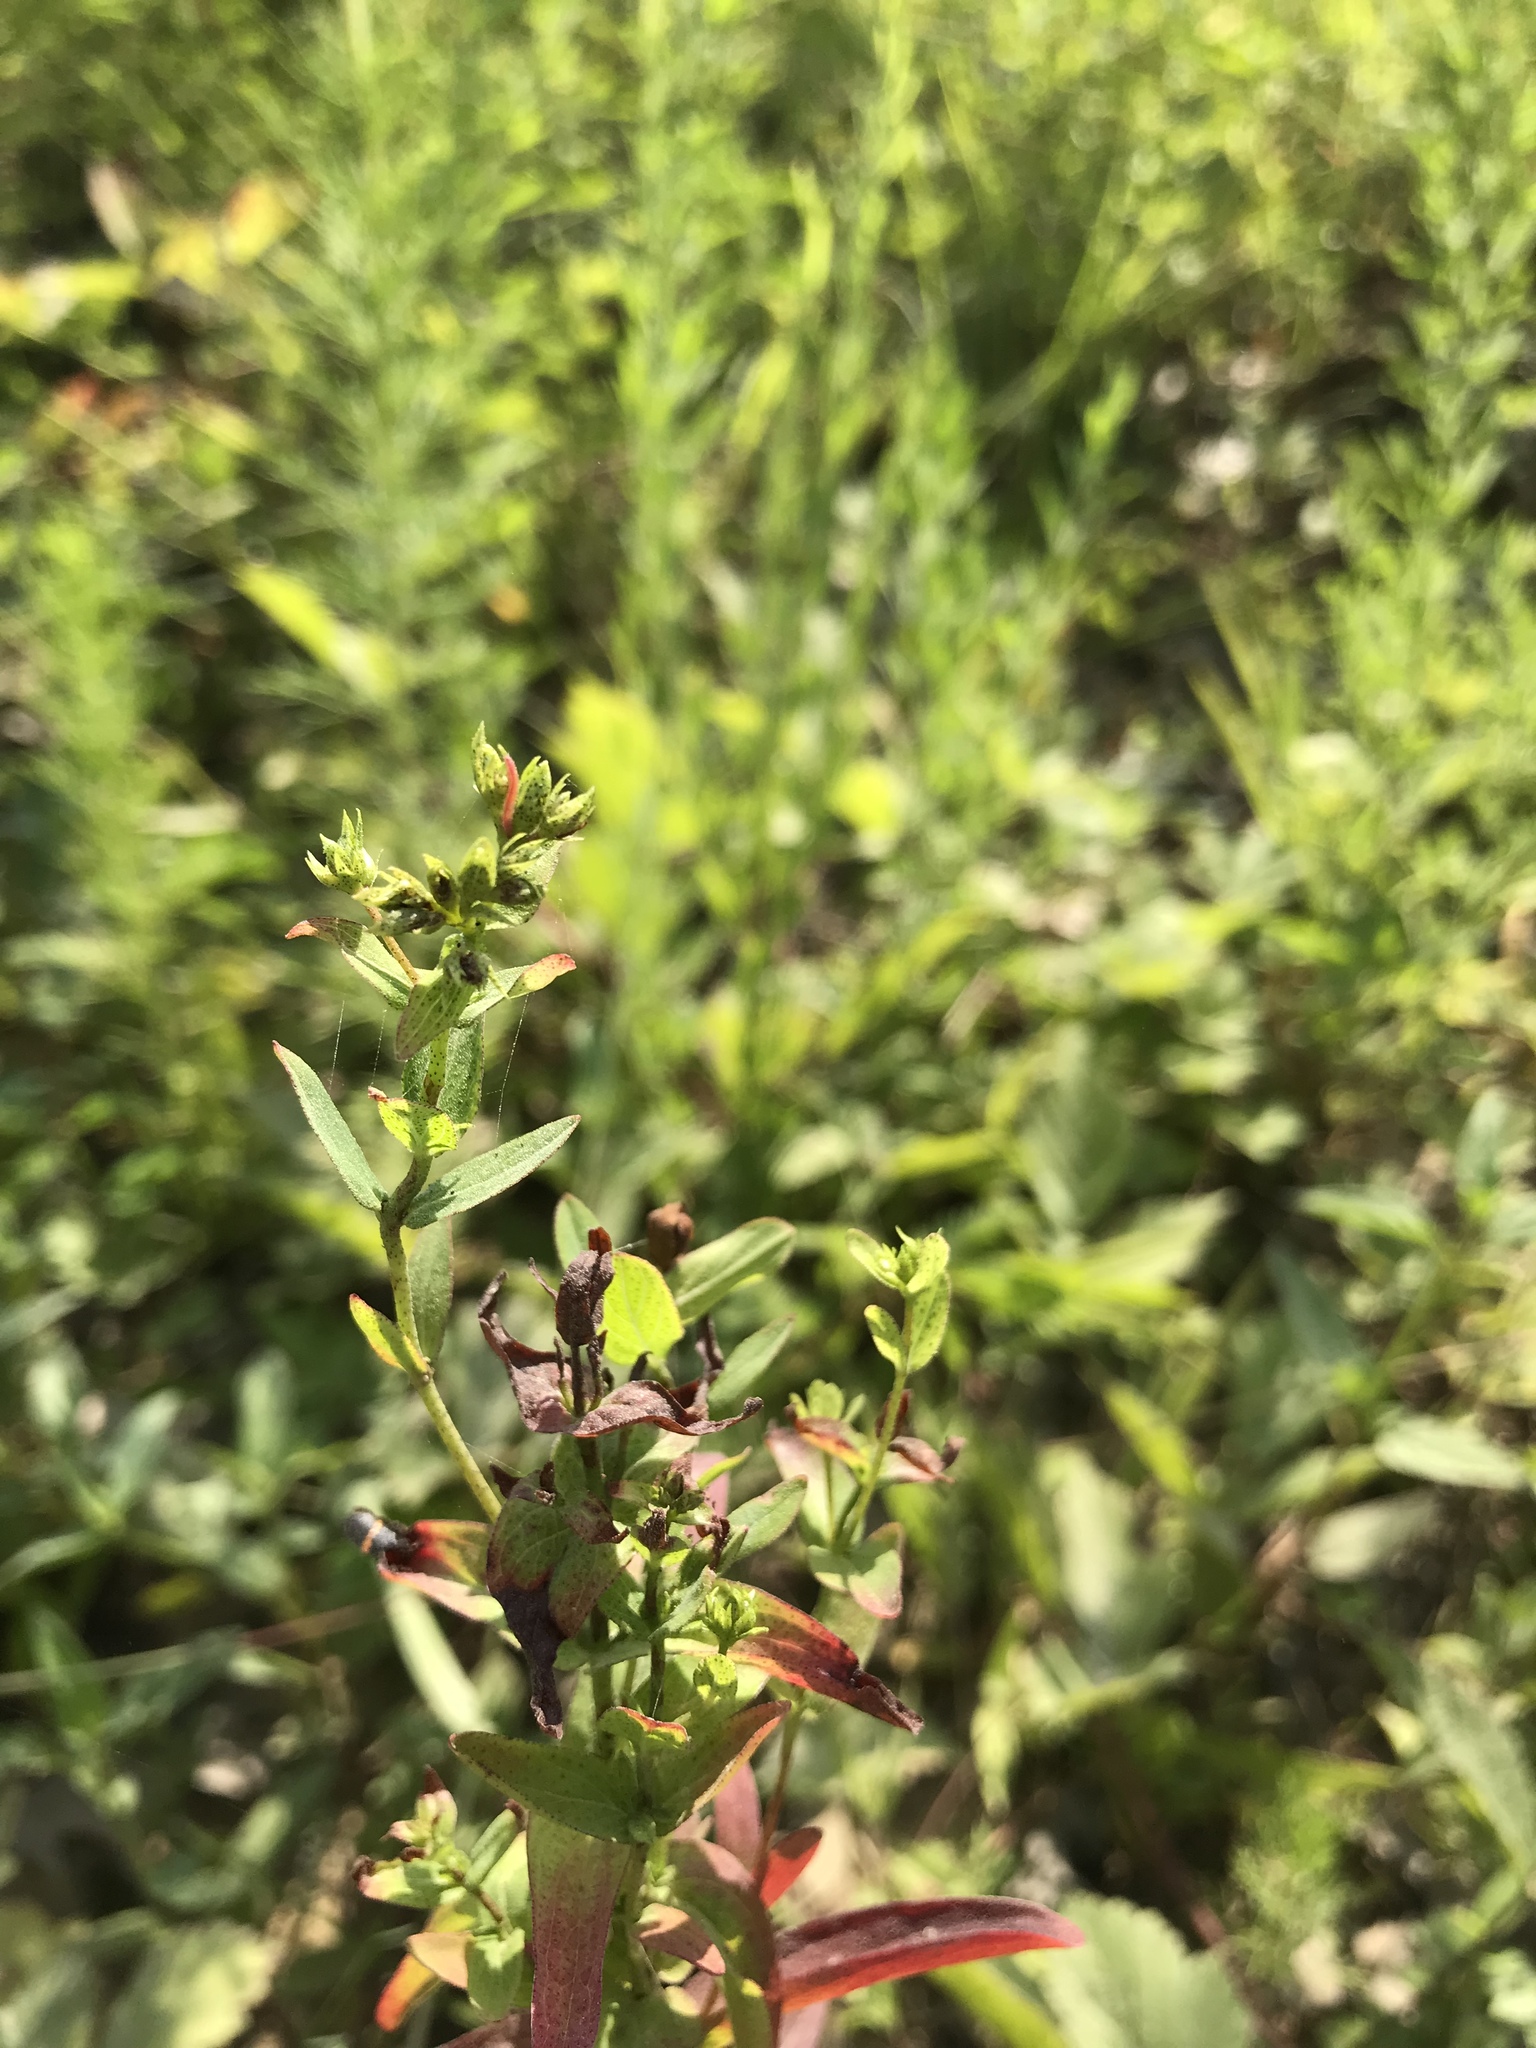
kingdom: Plantae
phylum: Tracheophyta
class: Magnoliopsida
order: Malpighiales
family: Hypericaceae
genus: Hypericum
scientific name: Hypericum punctatum
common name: Spotted st. john's-wort
